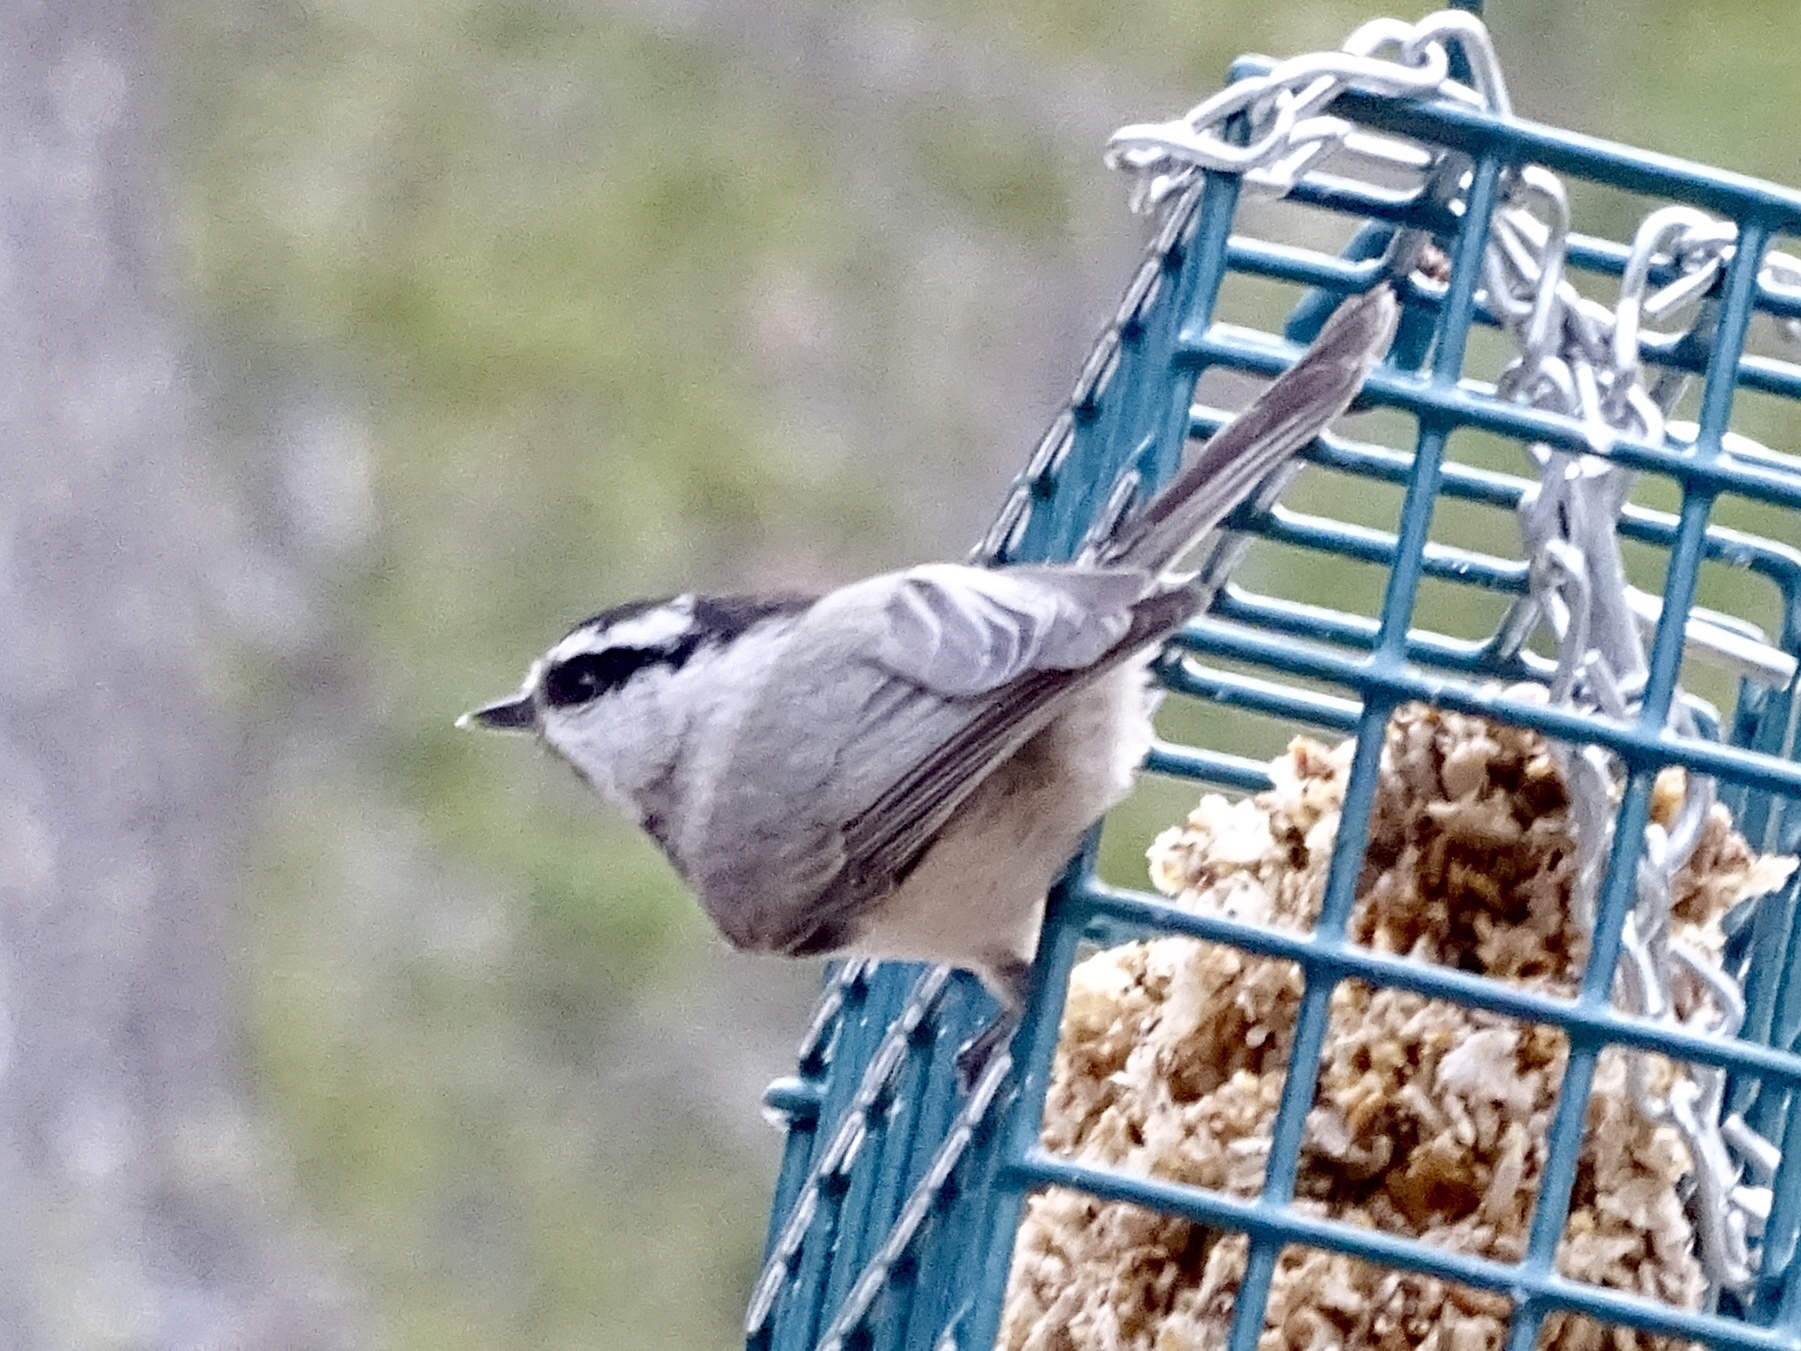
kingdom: Animalia
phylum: Chordata
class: Aves
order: Passeriformes
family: Paridae
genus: Poecile
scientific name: Poecile gambeli
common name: Mountain chickadee
